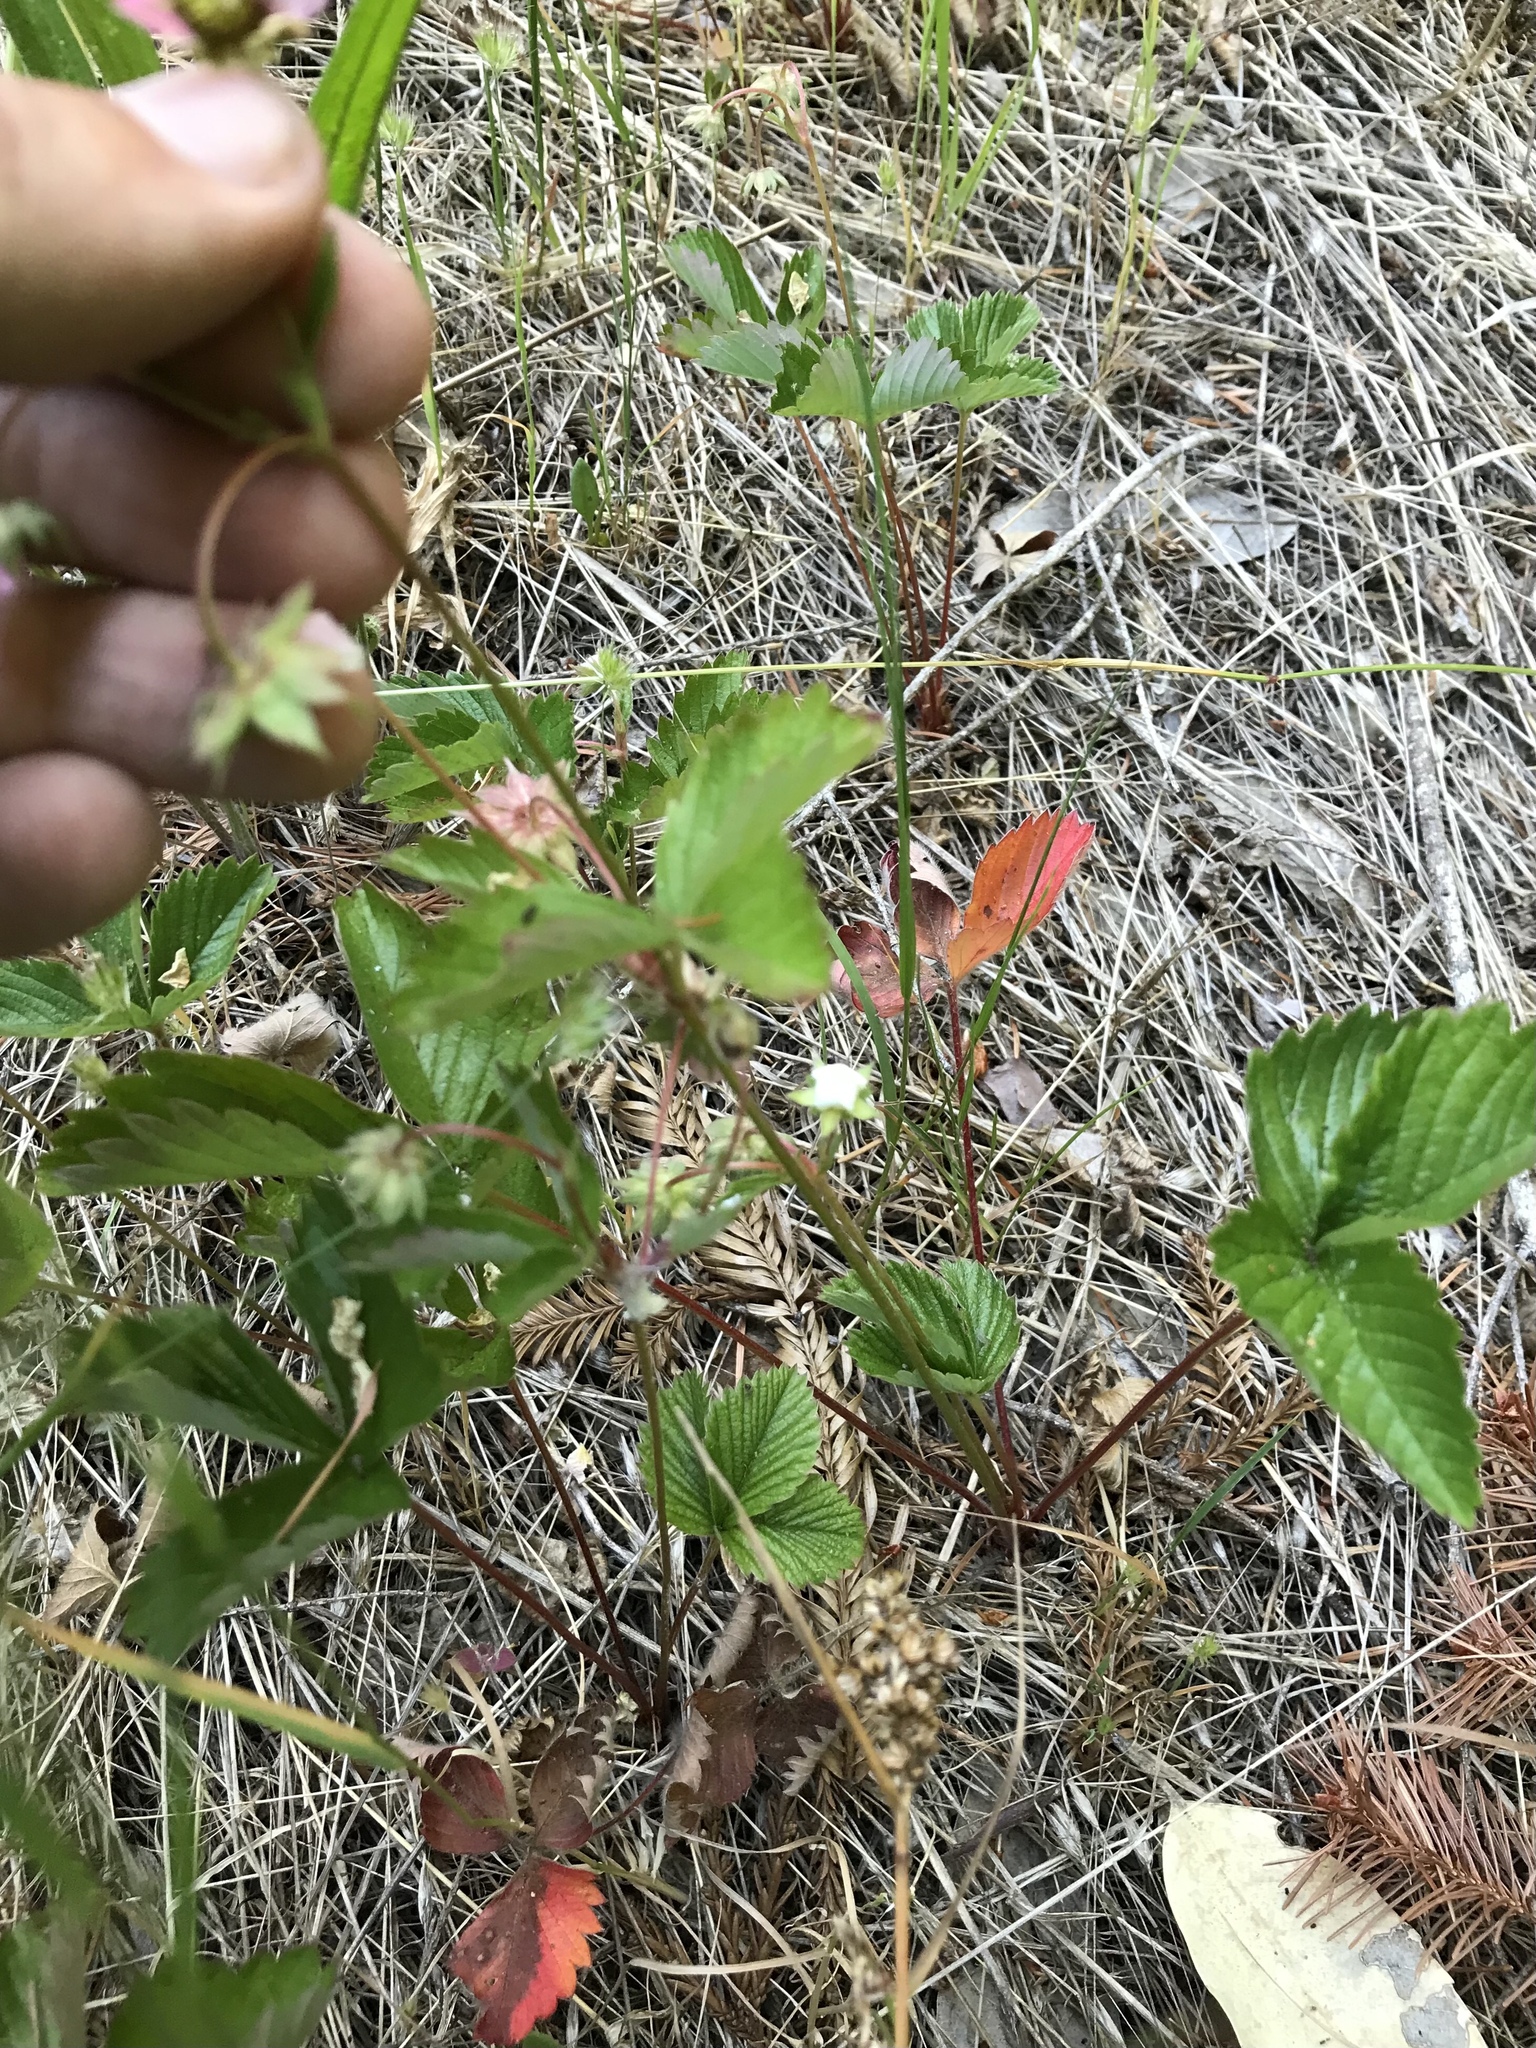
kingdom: Plantae
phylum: Tracheophyta
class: Magnoliopsida
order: Rosales
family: Rosaceae
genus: Fragaria
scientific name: Fragaria vesca
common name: Wild strawberry
